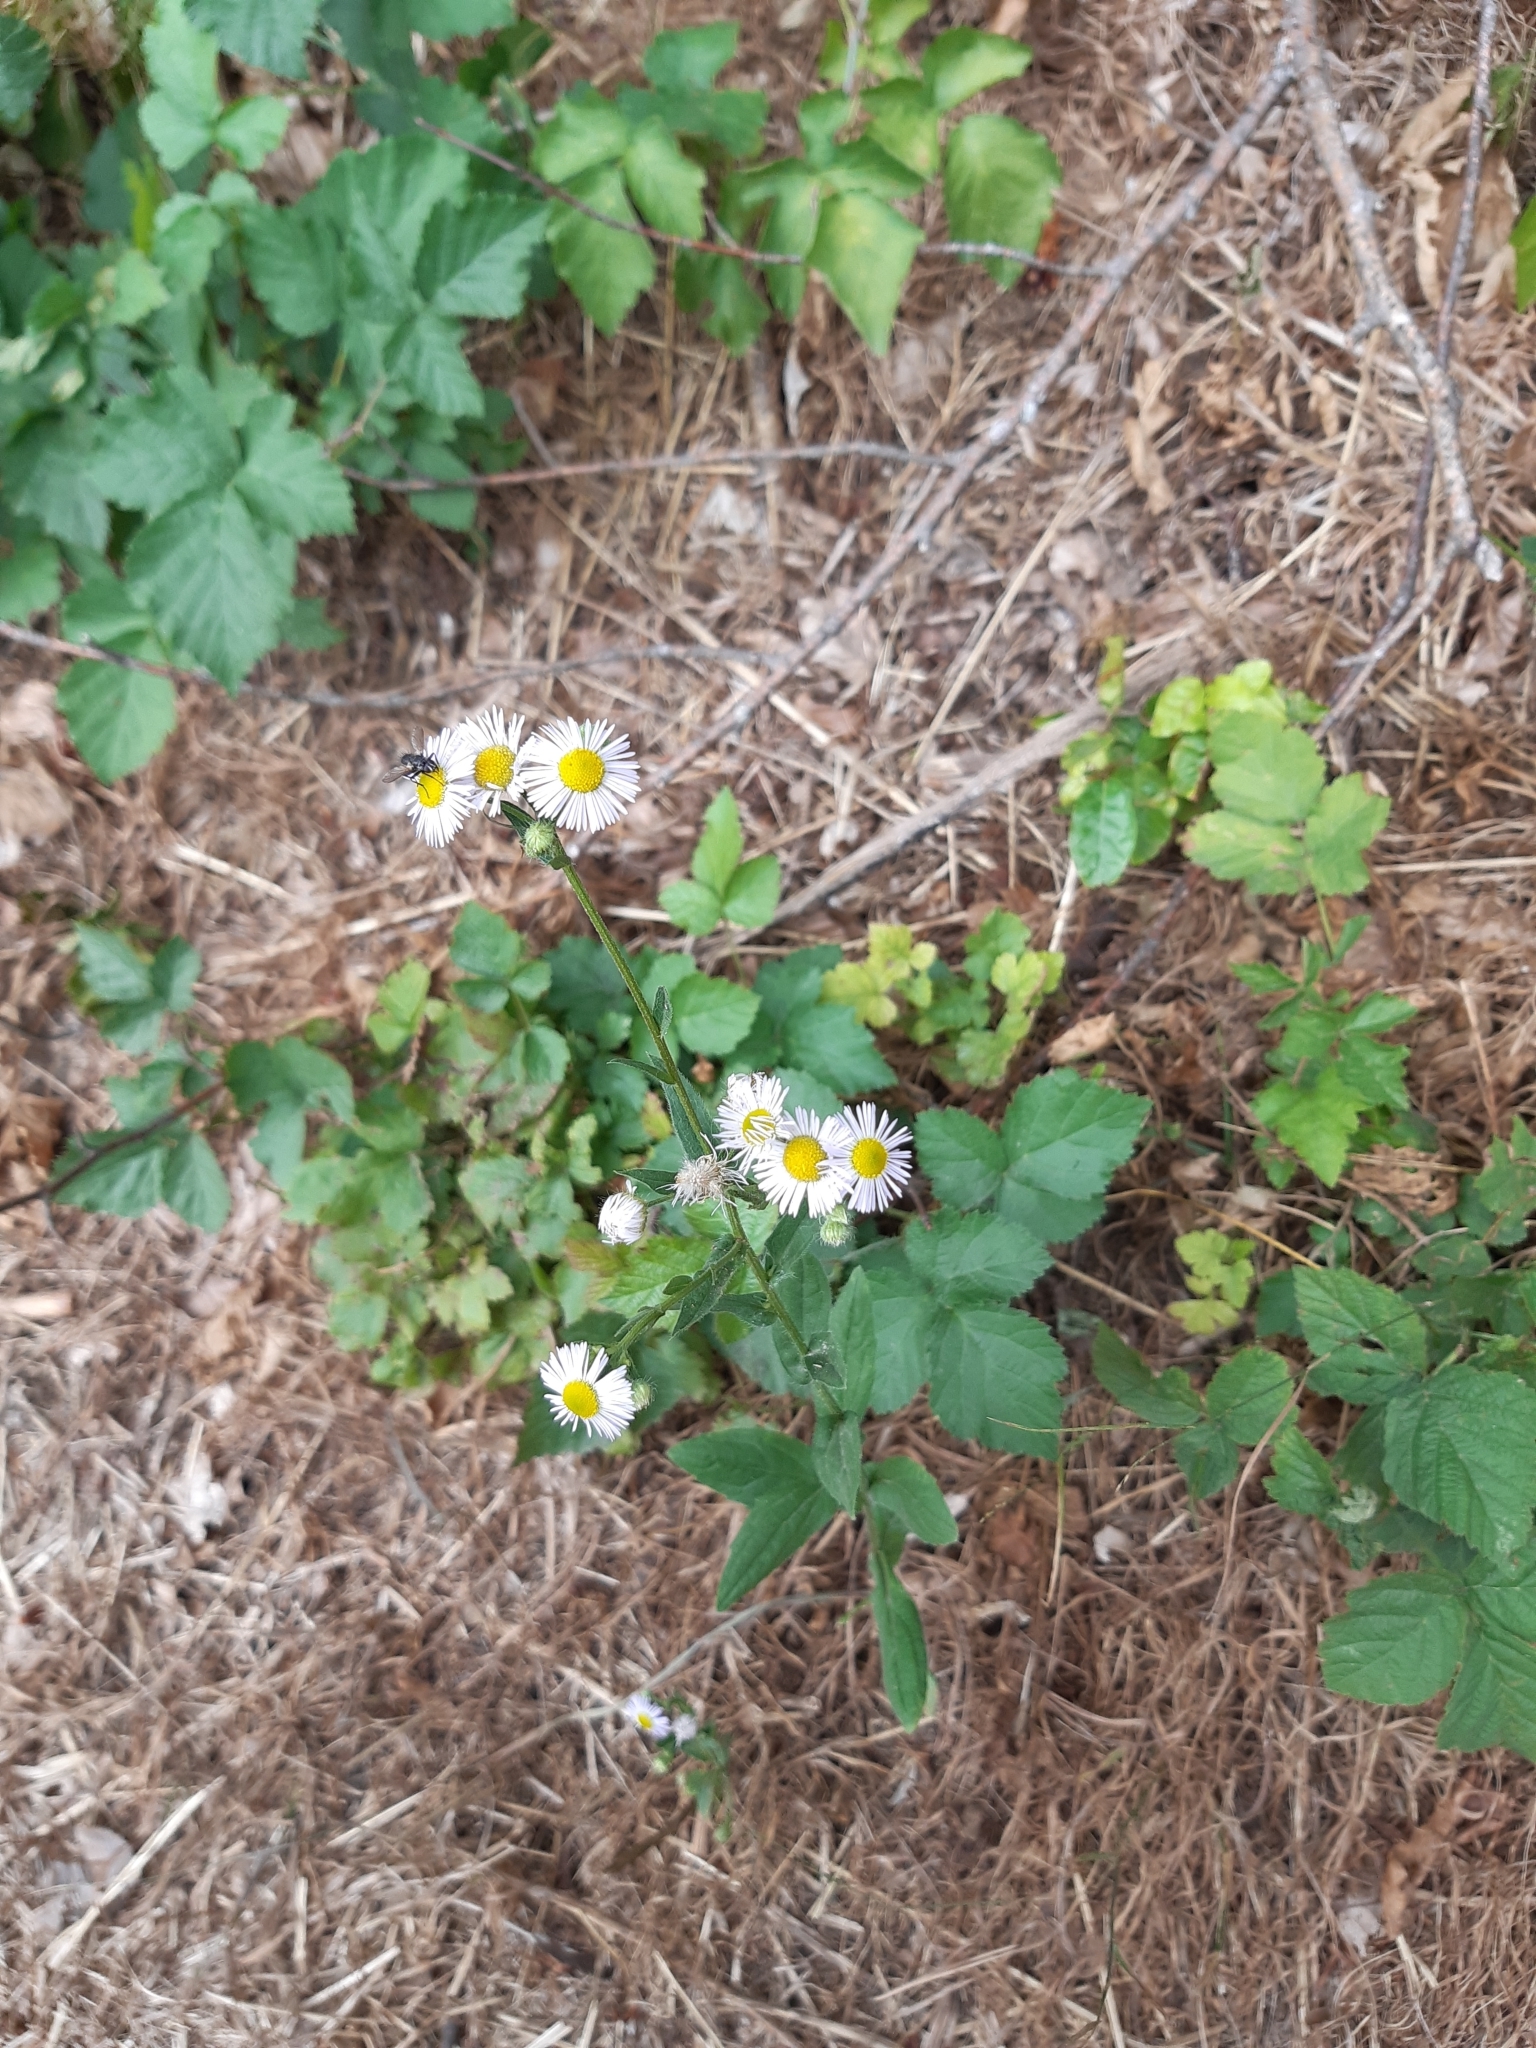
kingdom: Plantae
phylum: Tracheophyta
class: Magnoliopsida
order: Asterales
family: Asteraceae
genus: Erigeron
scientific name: Erigeron annuus
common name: Tall fleabane
